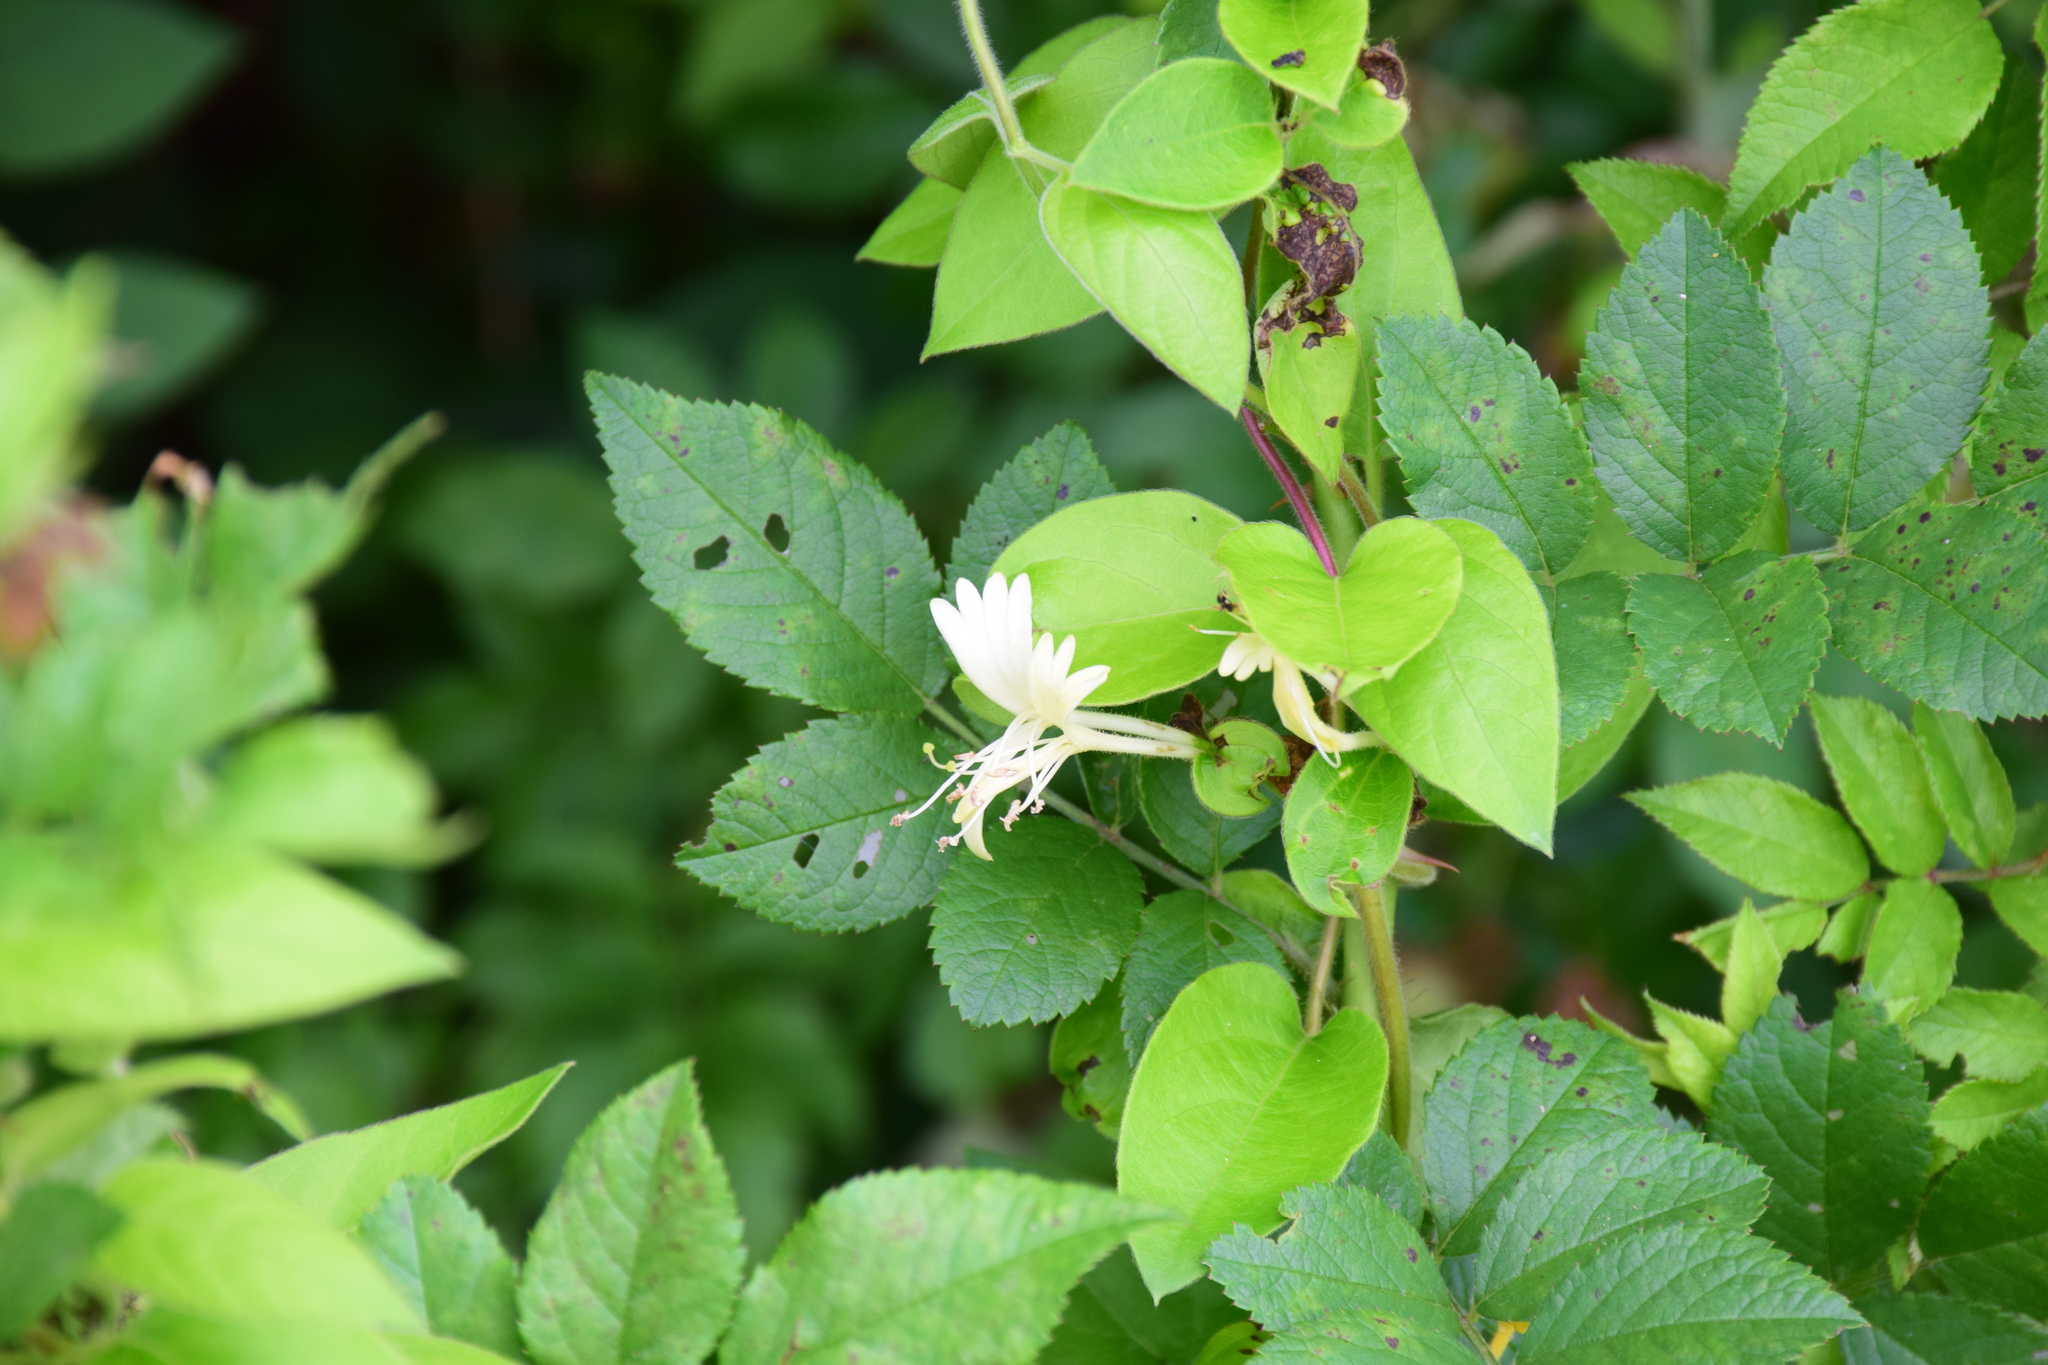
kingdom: Plantae
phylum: Tracheophyta
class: Magnoliopsida
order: Dipsacales
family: Caprifoliaceae
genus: Lonicera
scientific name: Lonicera japonica
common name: Japanese honeysuckle
